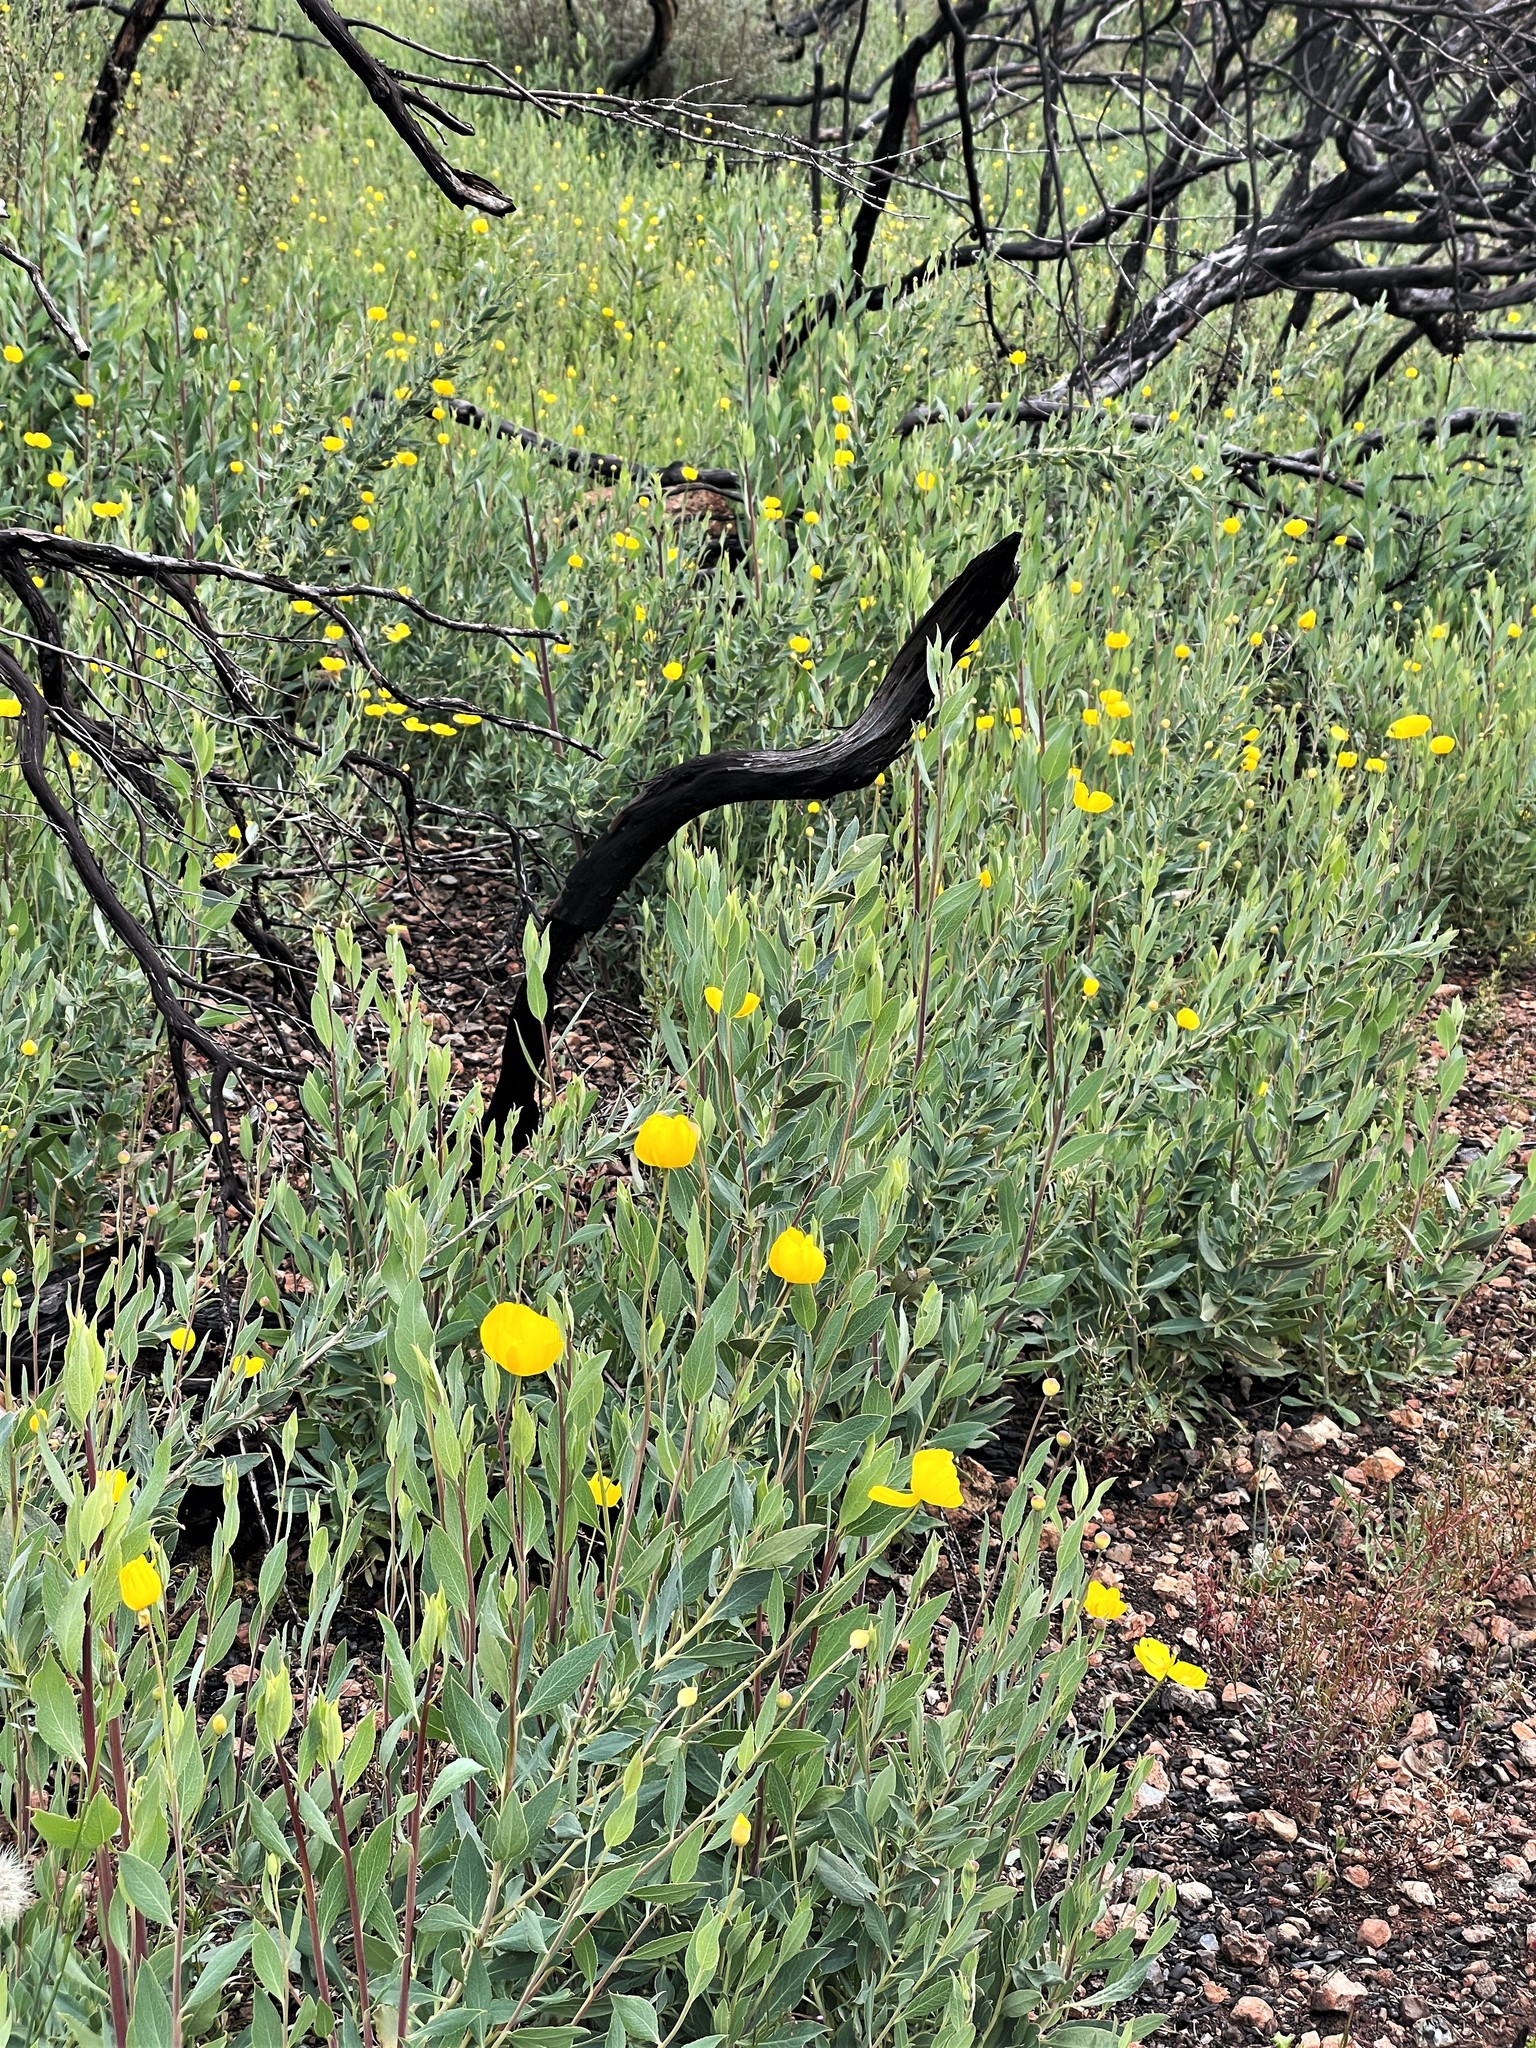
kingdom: Plantae
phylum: Tracheophyta
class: Magnoliopsida
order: Ranunculales
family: Papaveraceae
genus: Dendromecon
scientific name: Dendromecon rigida
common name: Tree poppy
